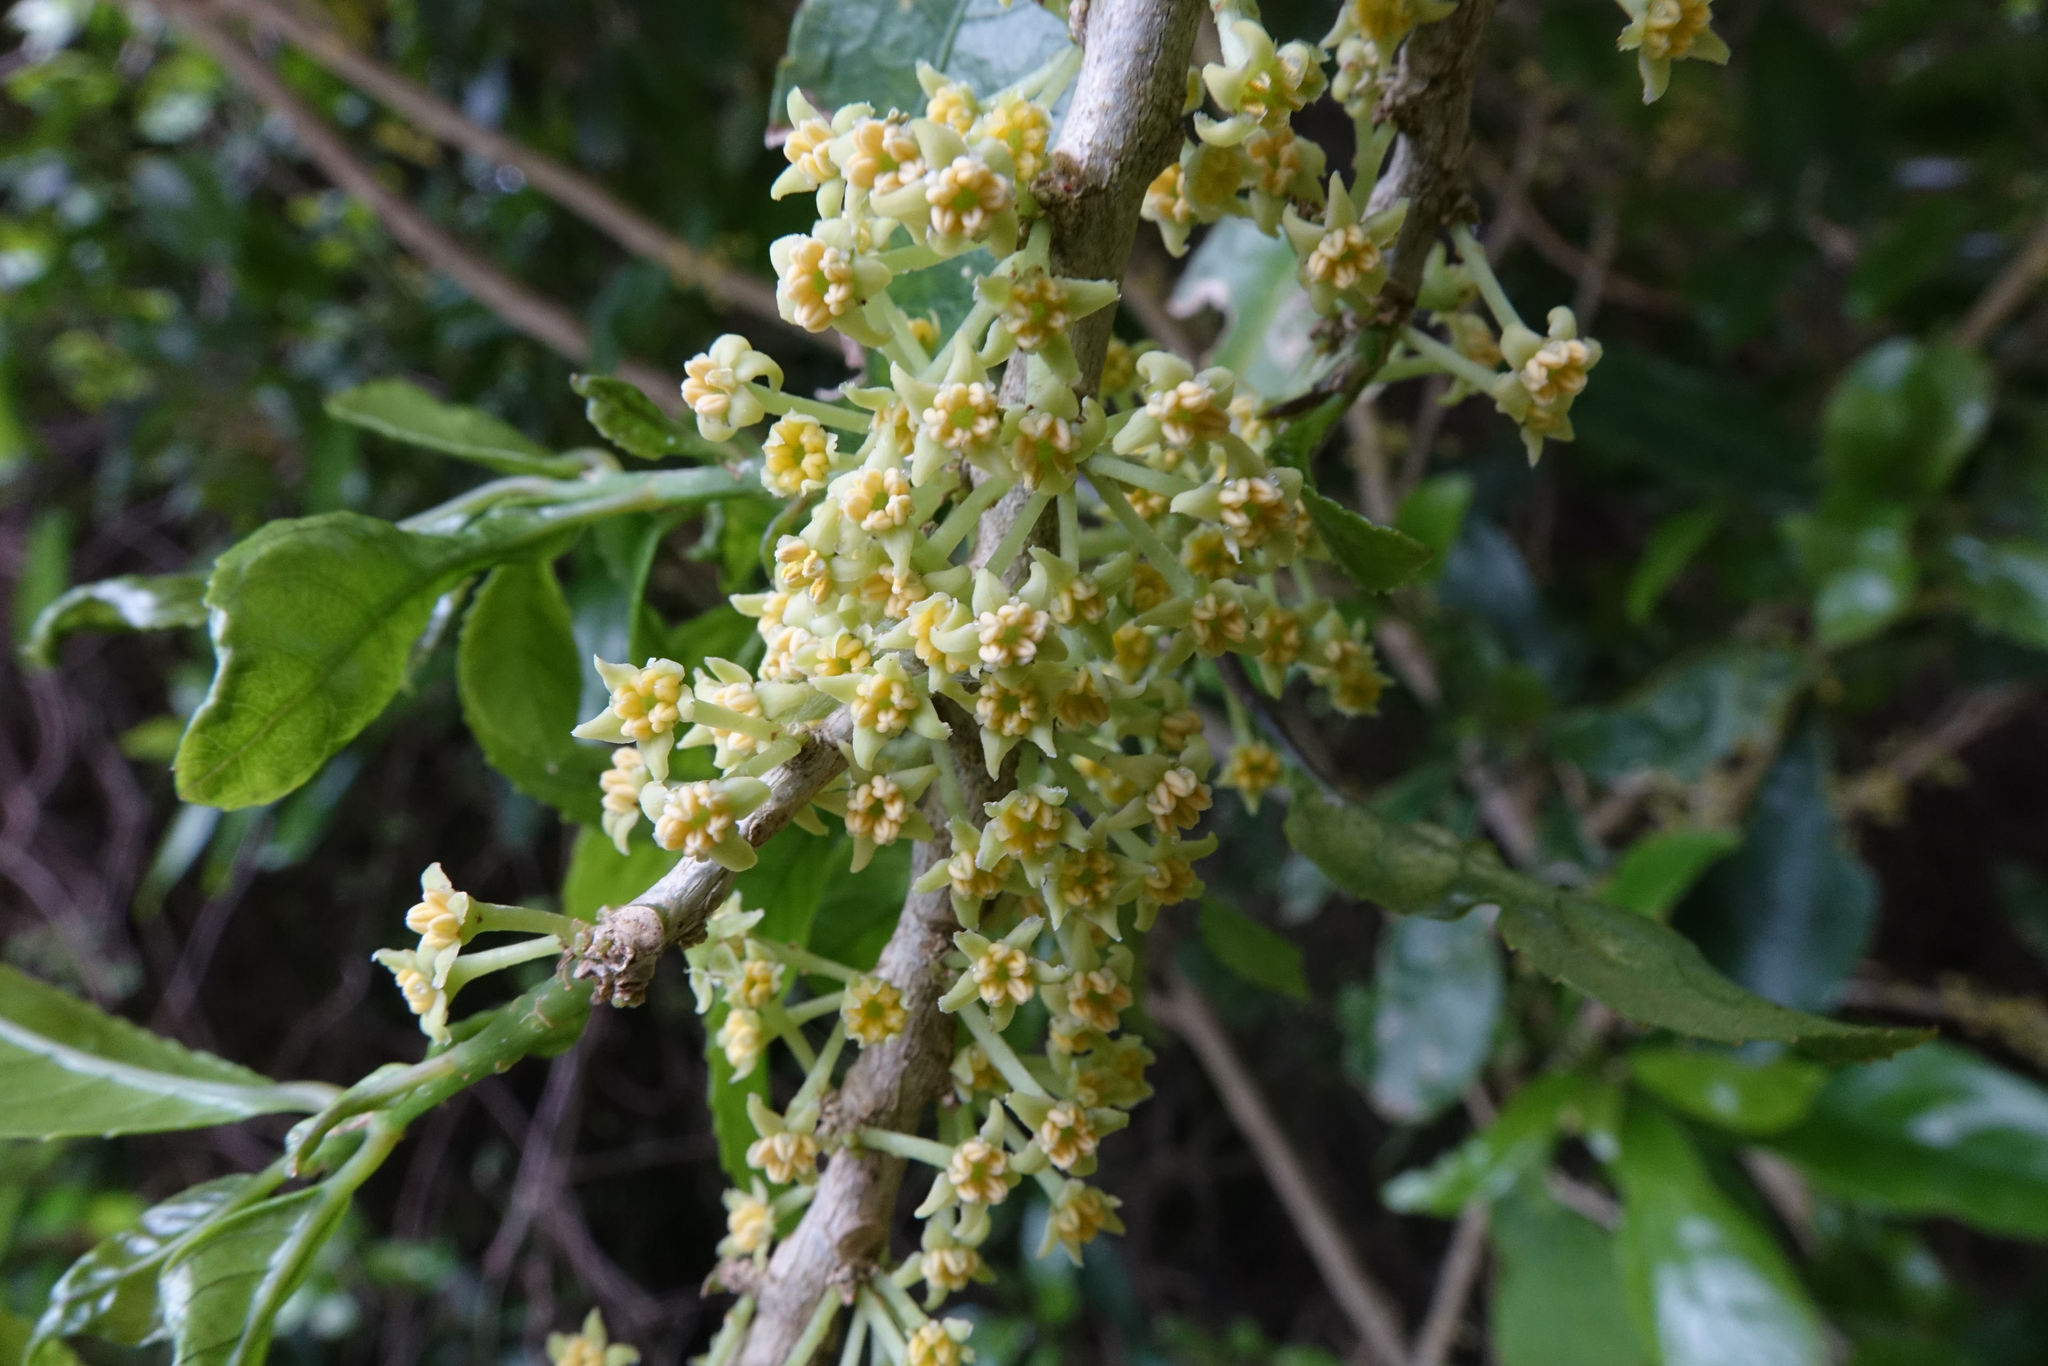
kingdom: Plantae
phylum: Tracheophyta
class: Magnoliopsida
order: Malpighiales
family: Violaceae
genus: Melicytus
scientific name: Melicytus ramiflorus
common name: Mahoe
